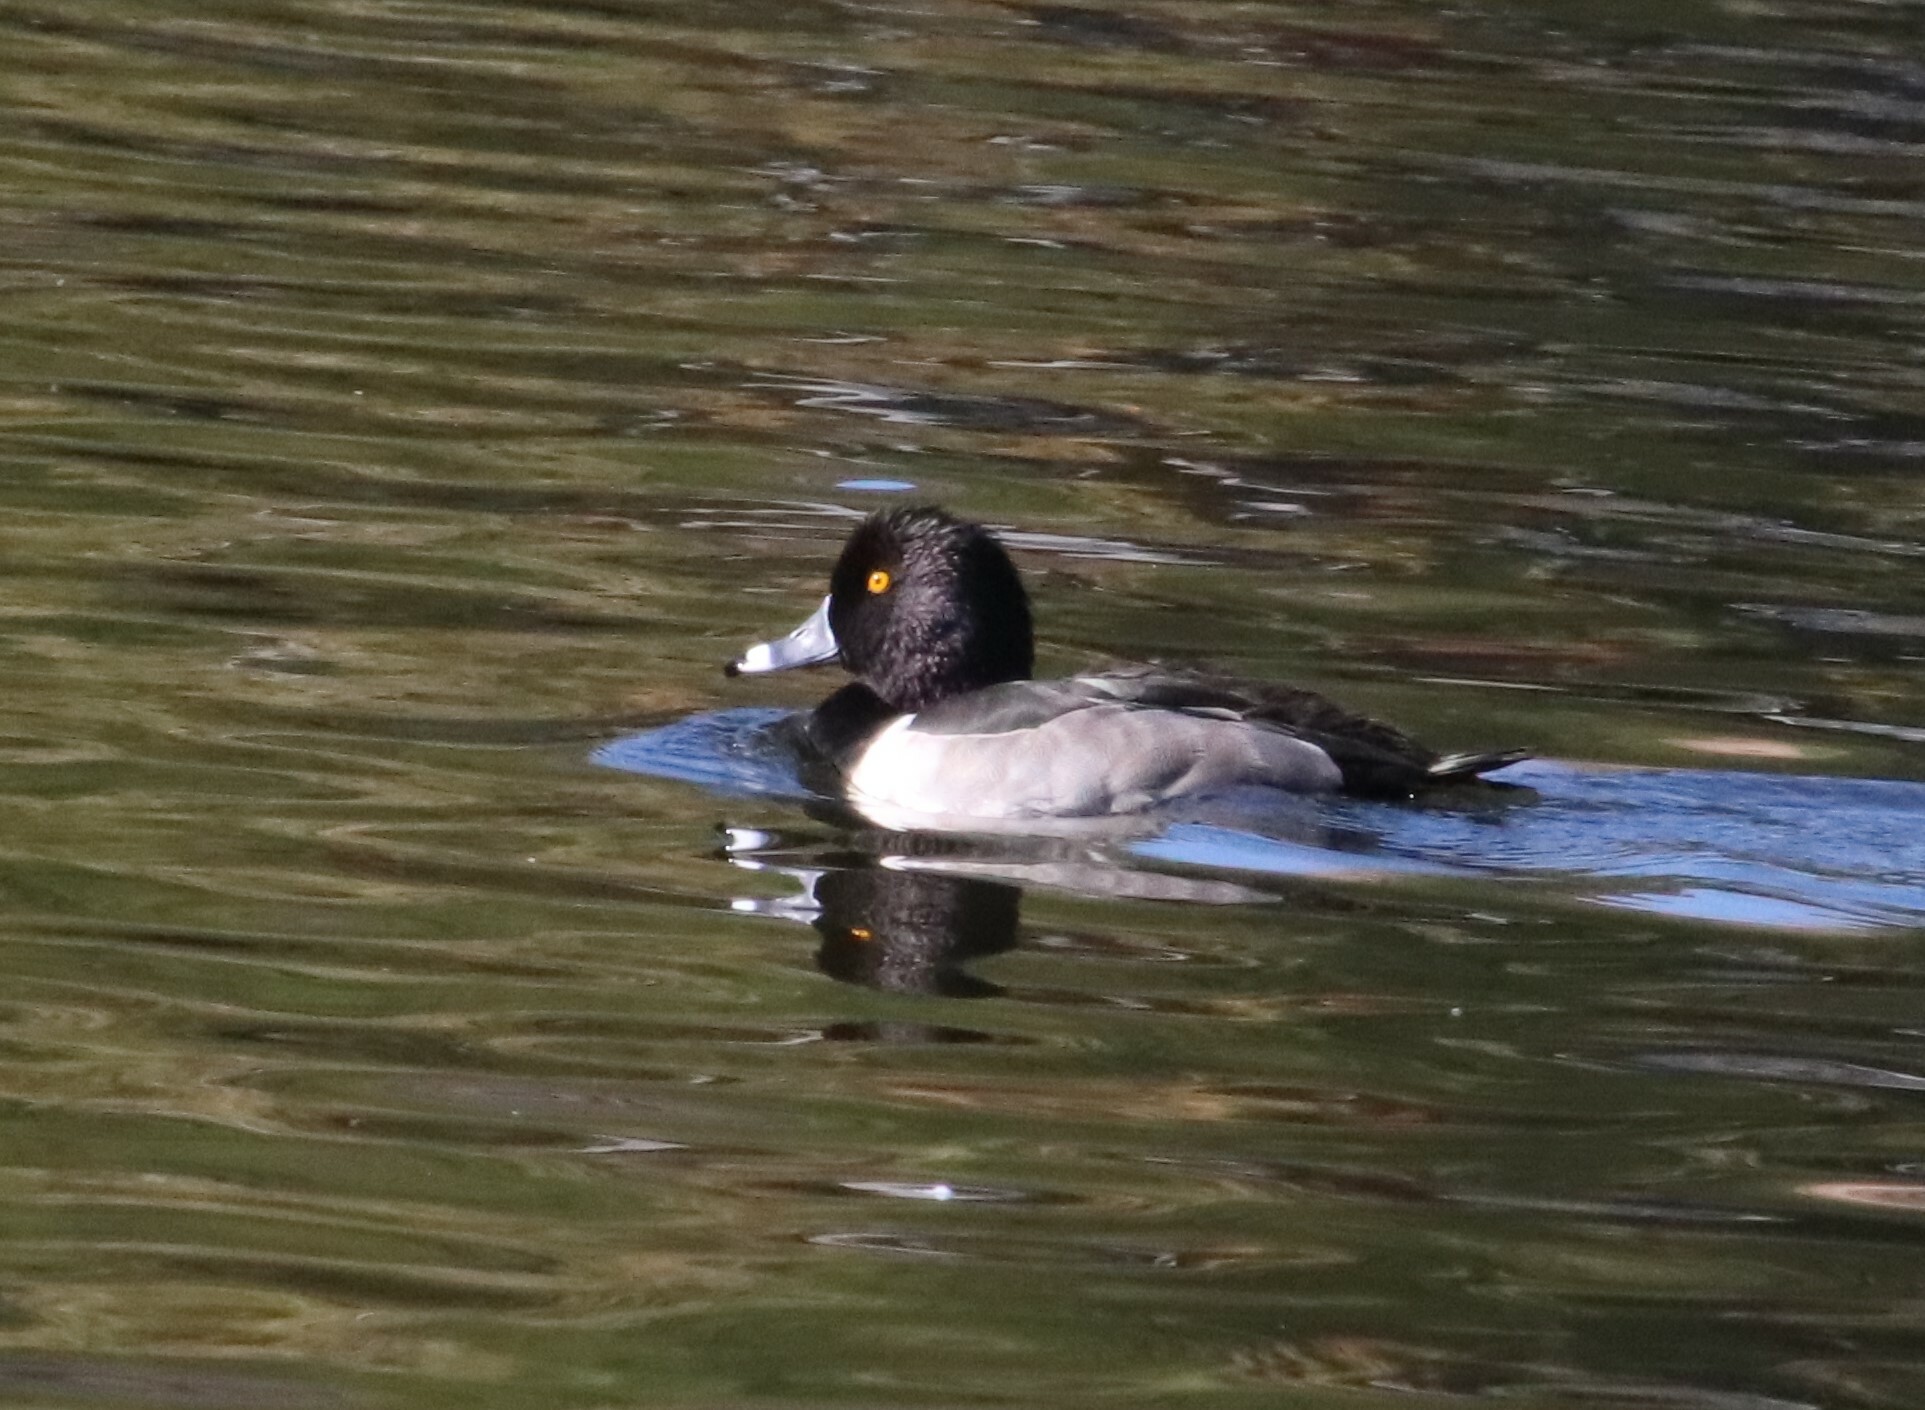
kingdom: Animalia
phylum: Chordata
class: Aves
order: Anseriformes
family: Anatidae
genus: Aythya
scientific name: Aythya collaris
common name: Ring-necked duck
